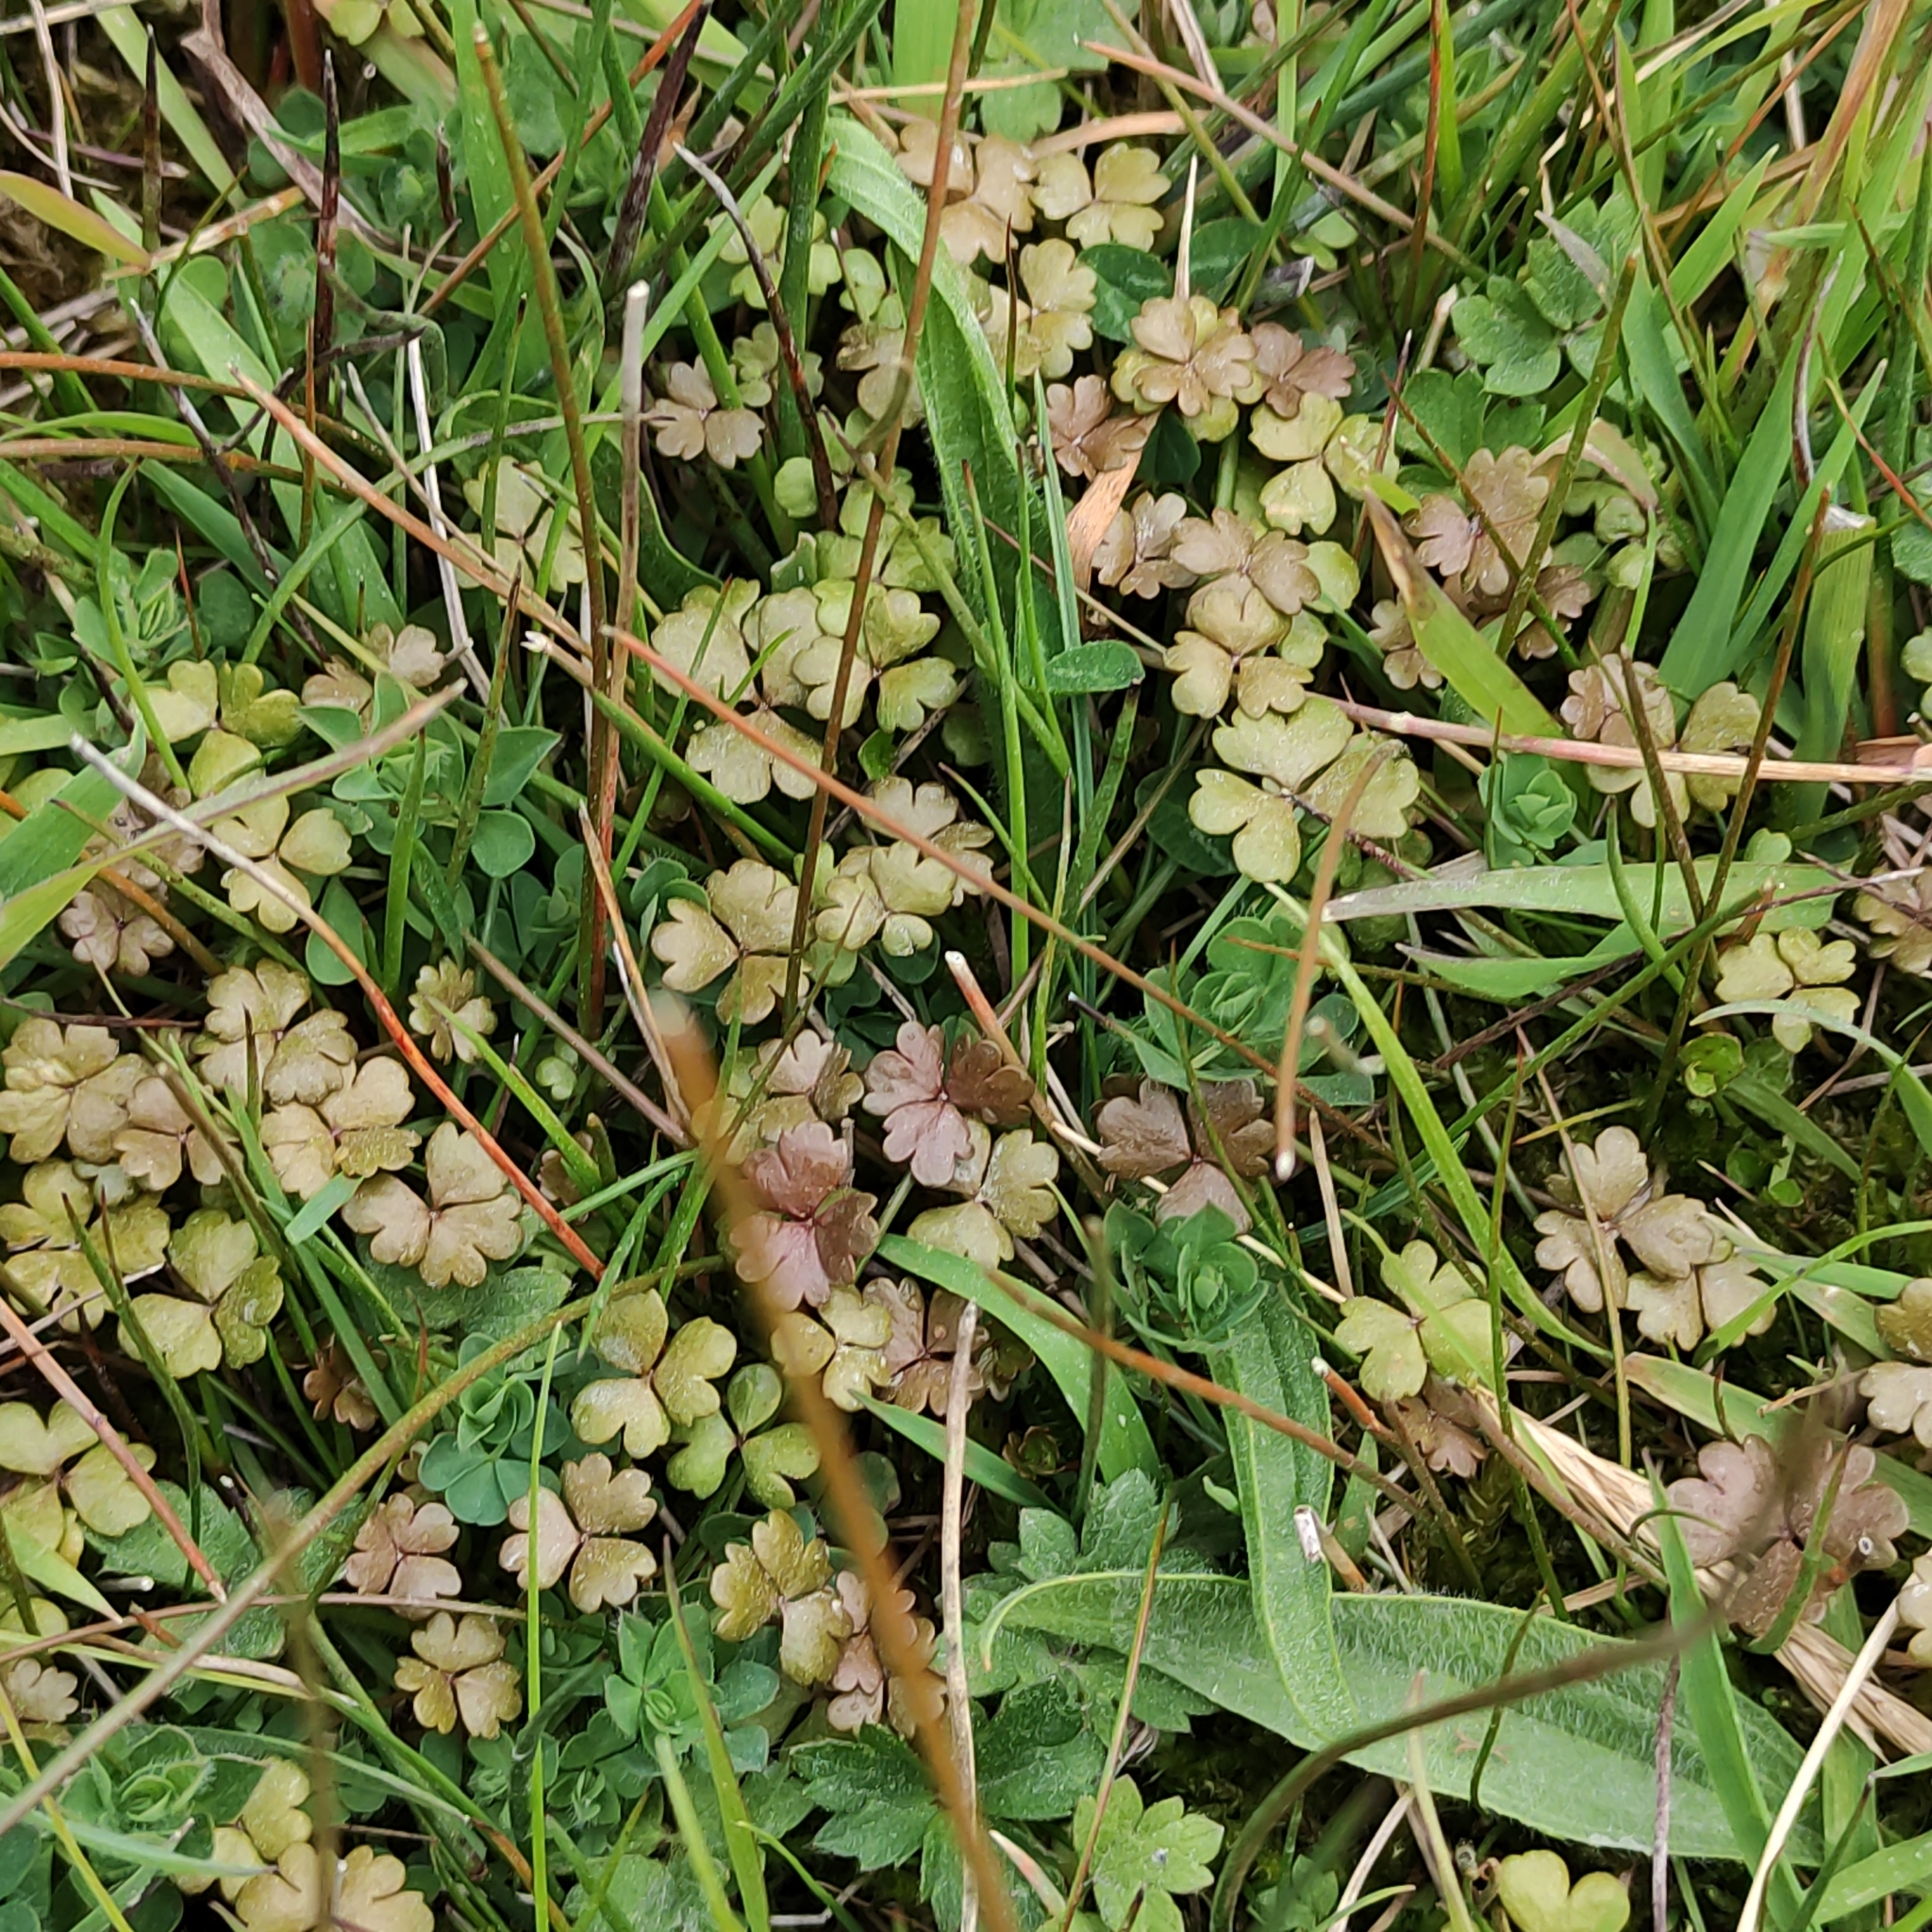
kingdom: Plantae
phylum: Tracheophyta
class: Magnoliopsida
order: Apiales
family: Araliaceae
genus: Hydrocotyle
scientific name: Hydrocotyle sulcata
